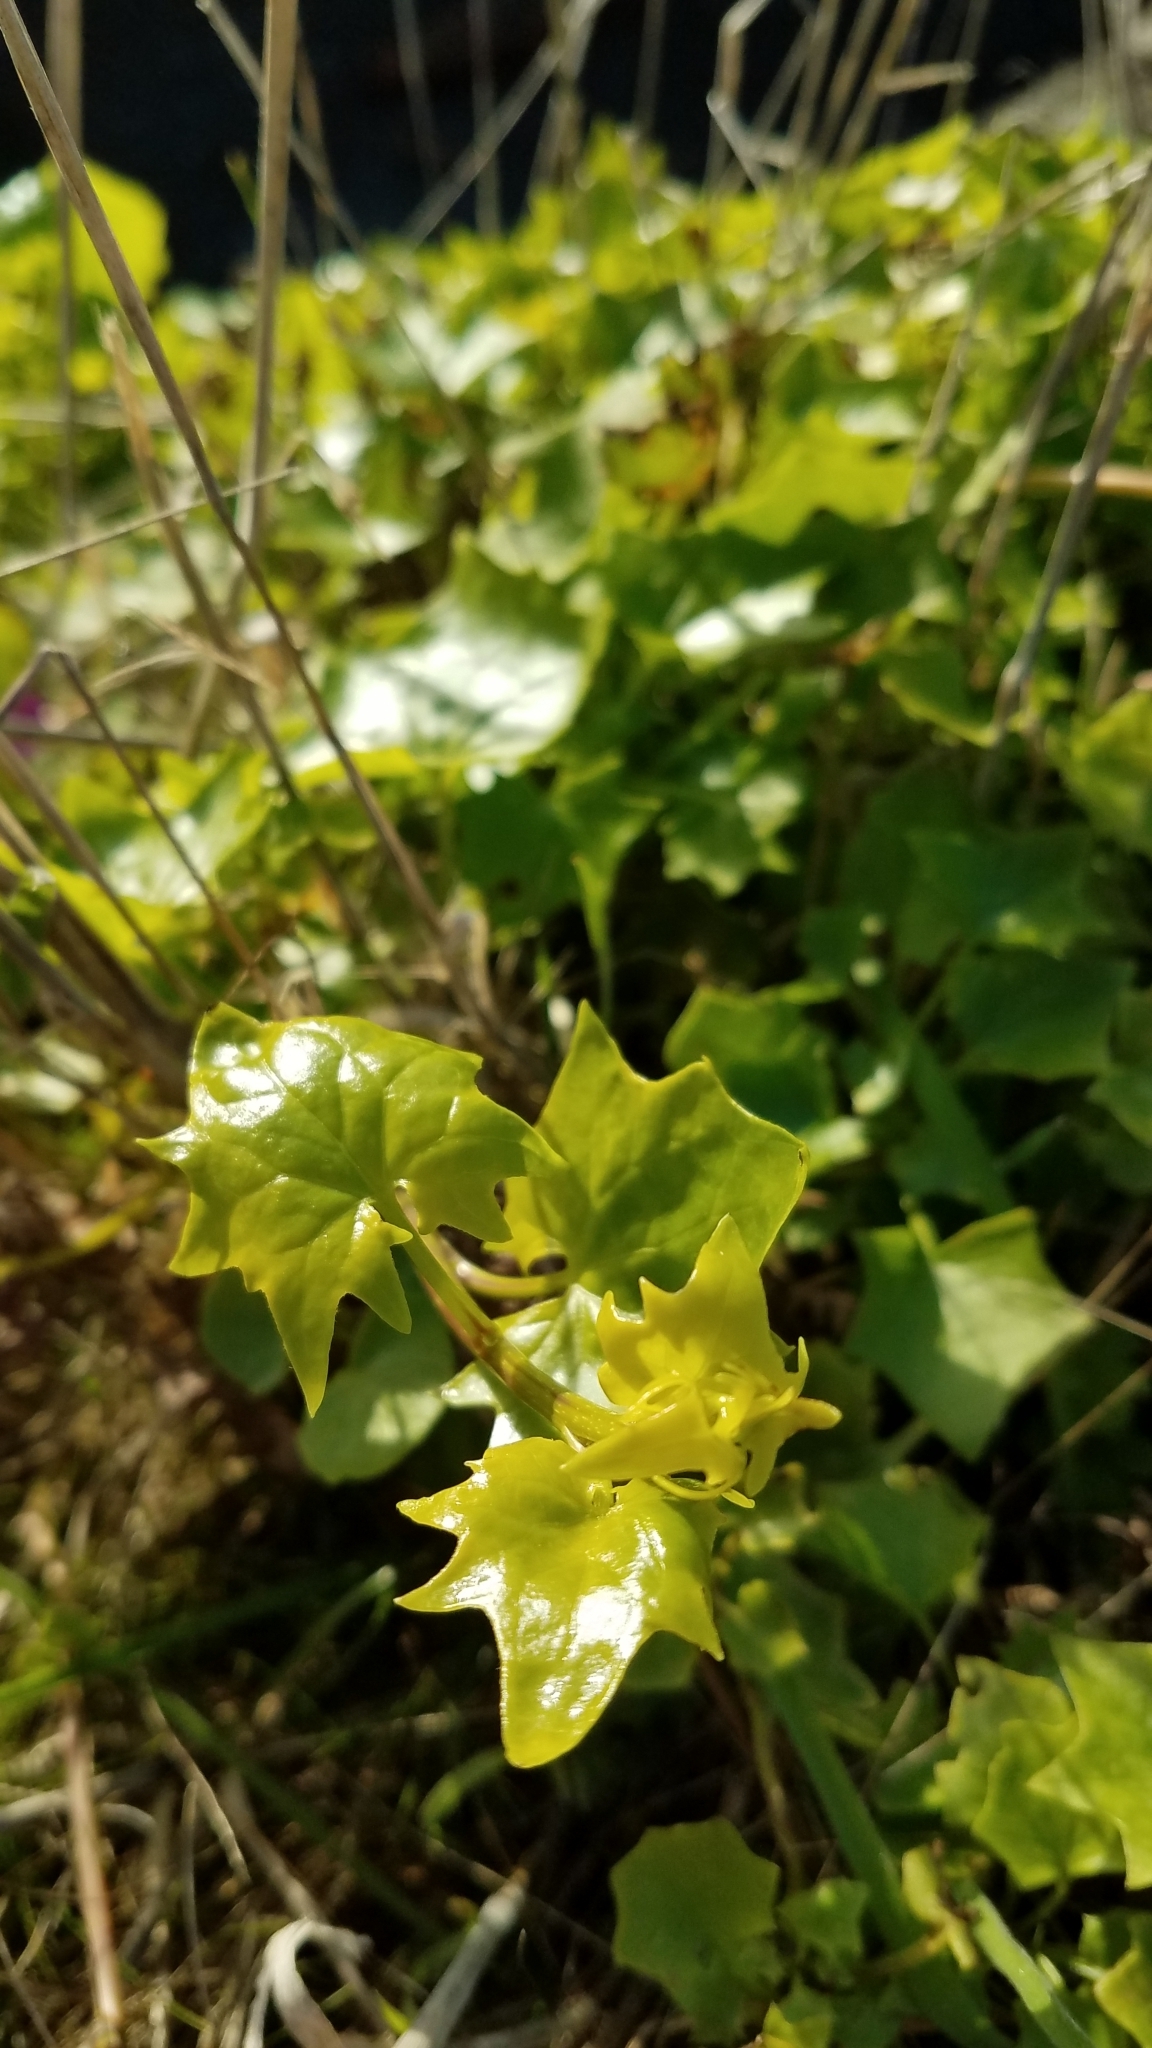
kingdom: Plantae
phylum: Tracheophyta
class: Magnoliopsida
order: Asterales
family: Asteraceae
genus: Delairea
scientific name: Delairea odorata
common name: Cape-ivy
